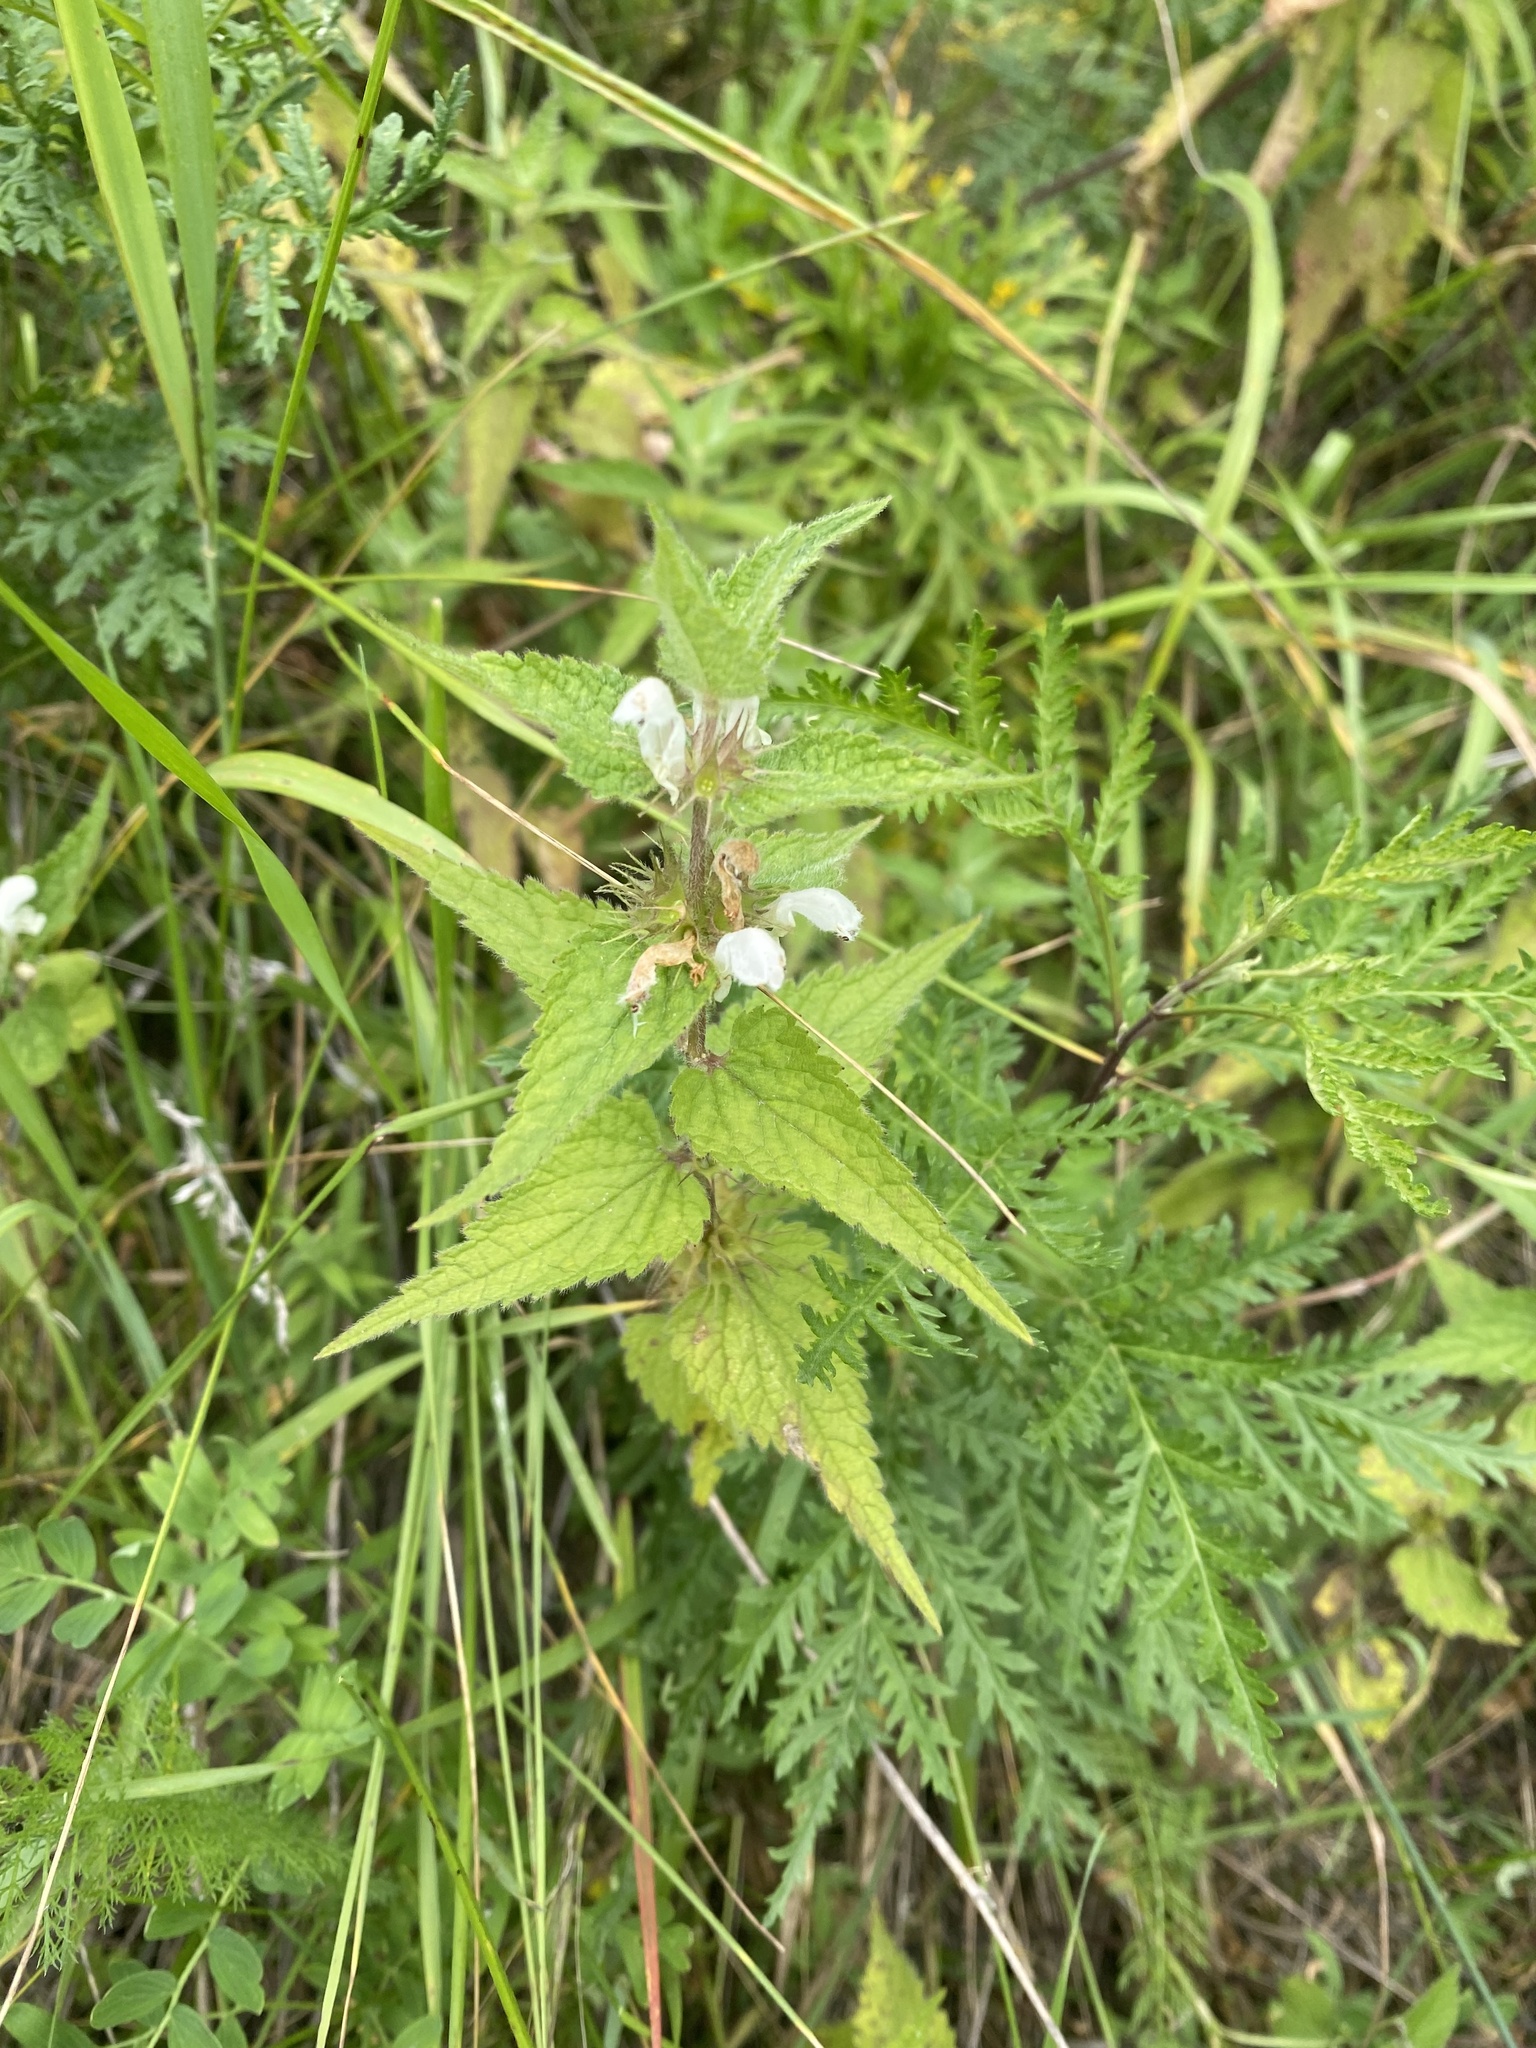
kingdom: Plantae
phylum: Tracheophyta
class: Magnoliopsida
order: Lamiales
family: Lamiaceae
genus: Lamium
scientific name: Lamium album
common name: White dead-nettle
